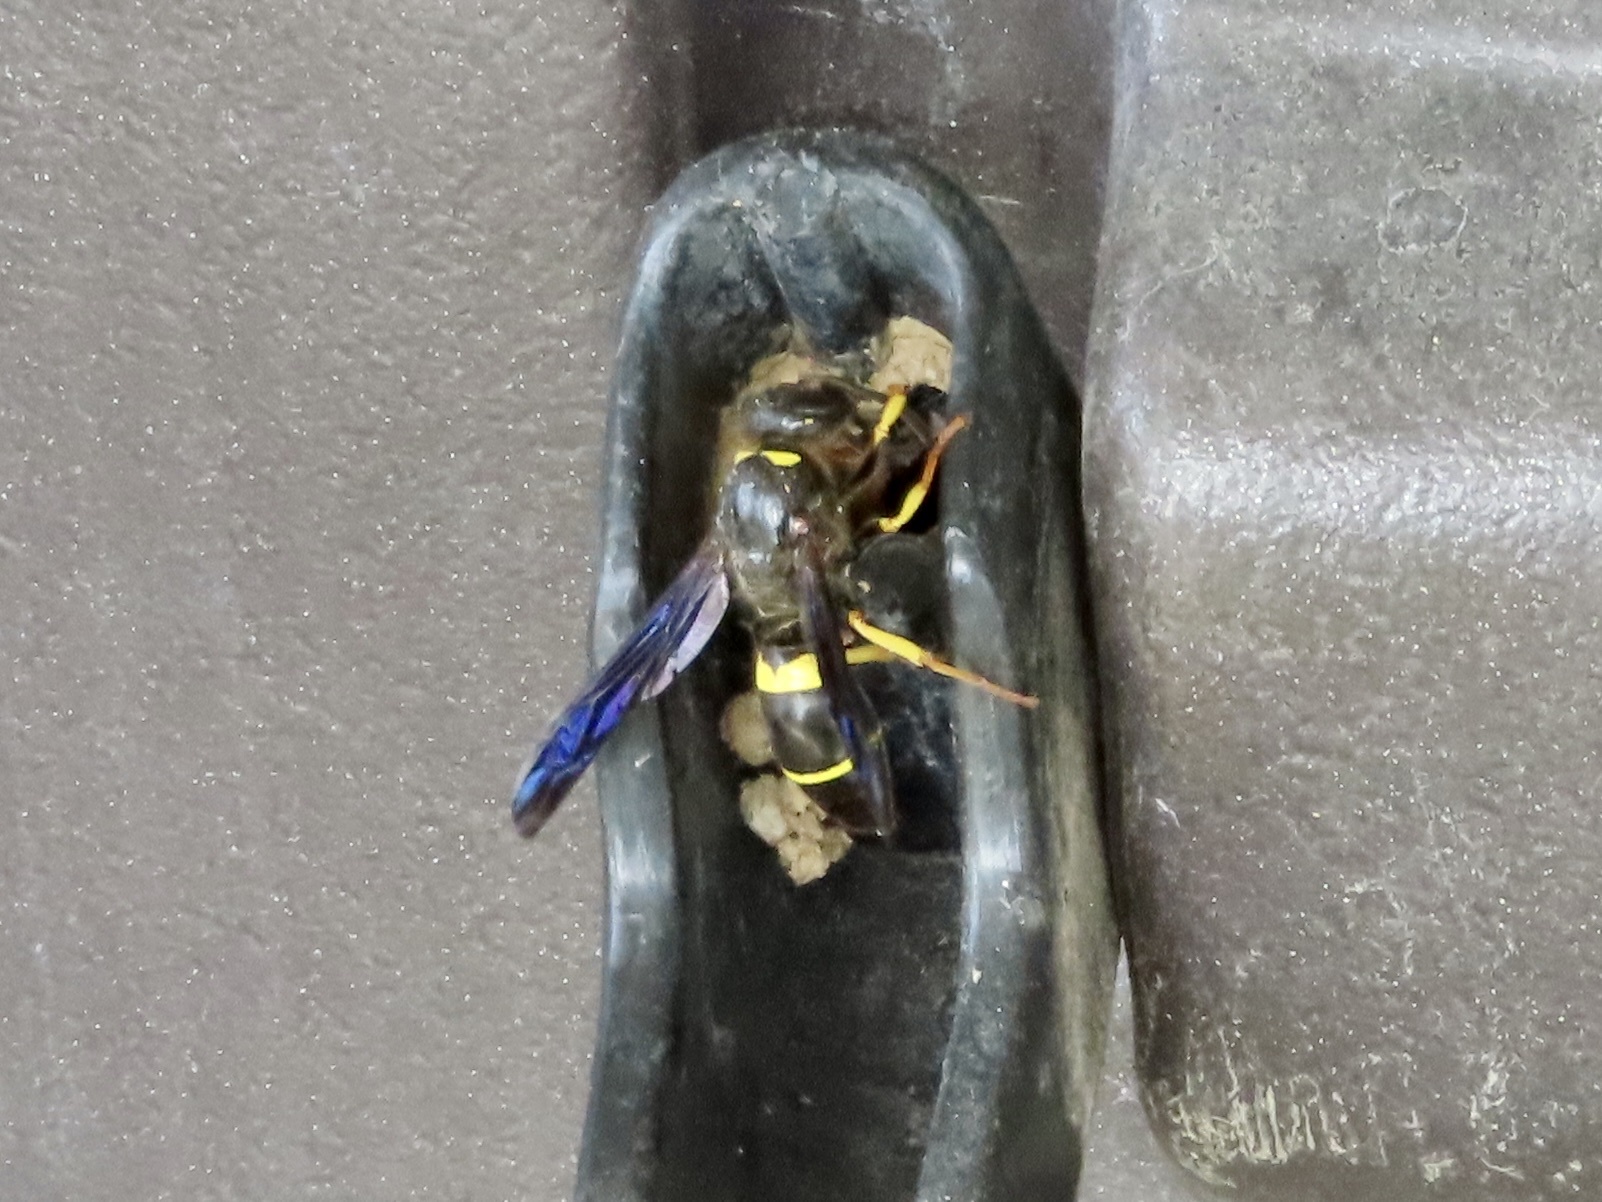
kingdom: Animalia
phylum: Arthropoda
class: Insecta
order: Hymenoptera
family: Vespidae
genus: Ancistrocerus
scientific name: Ancistrocerus spinolae
